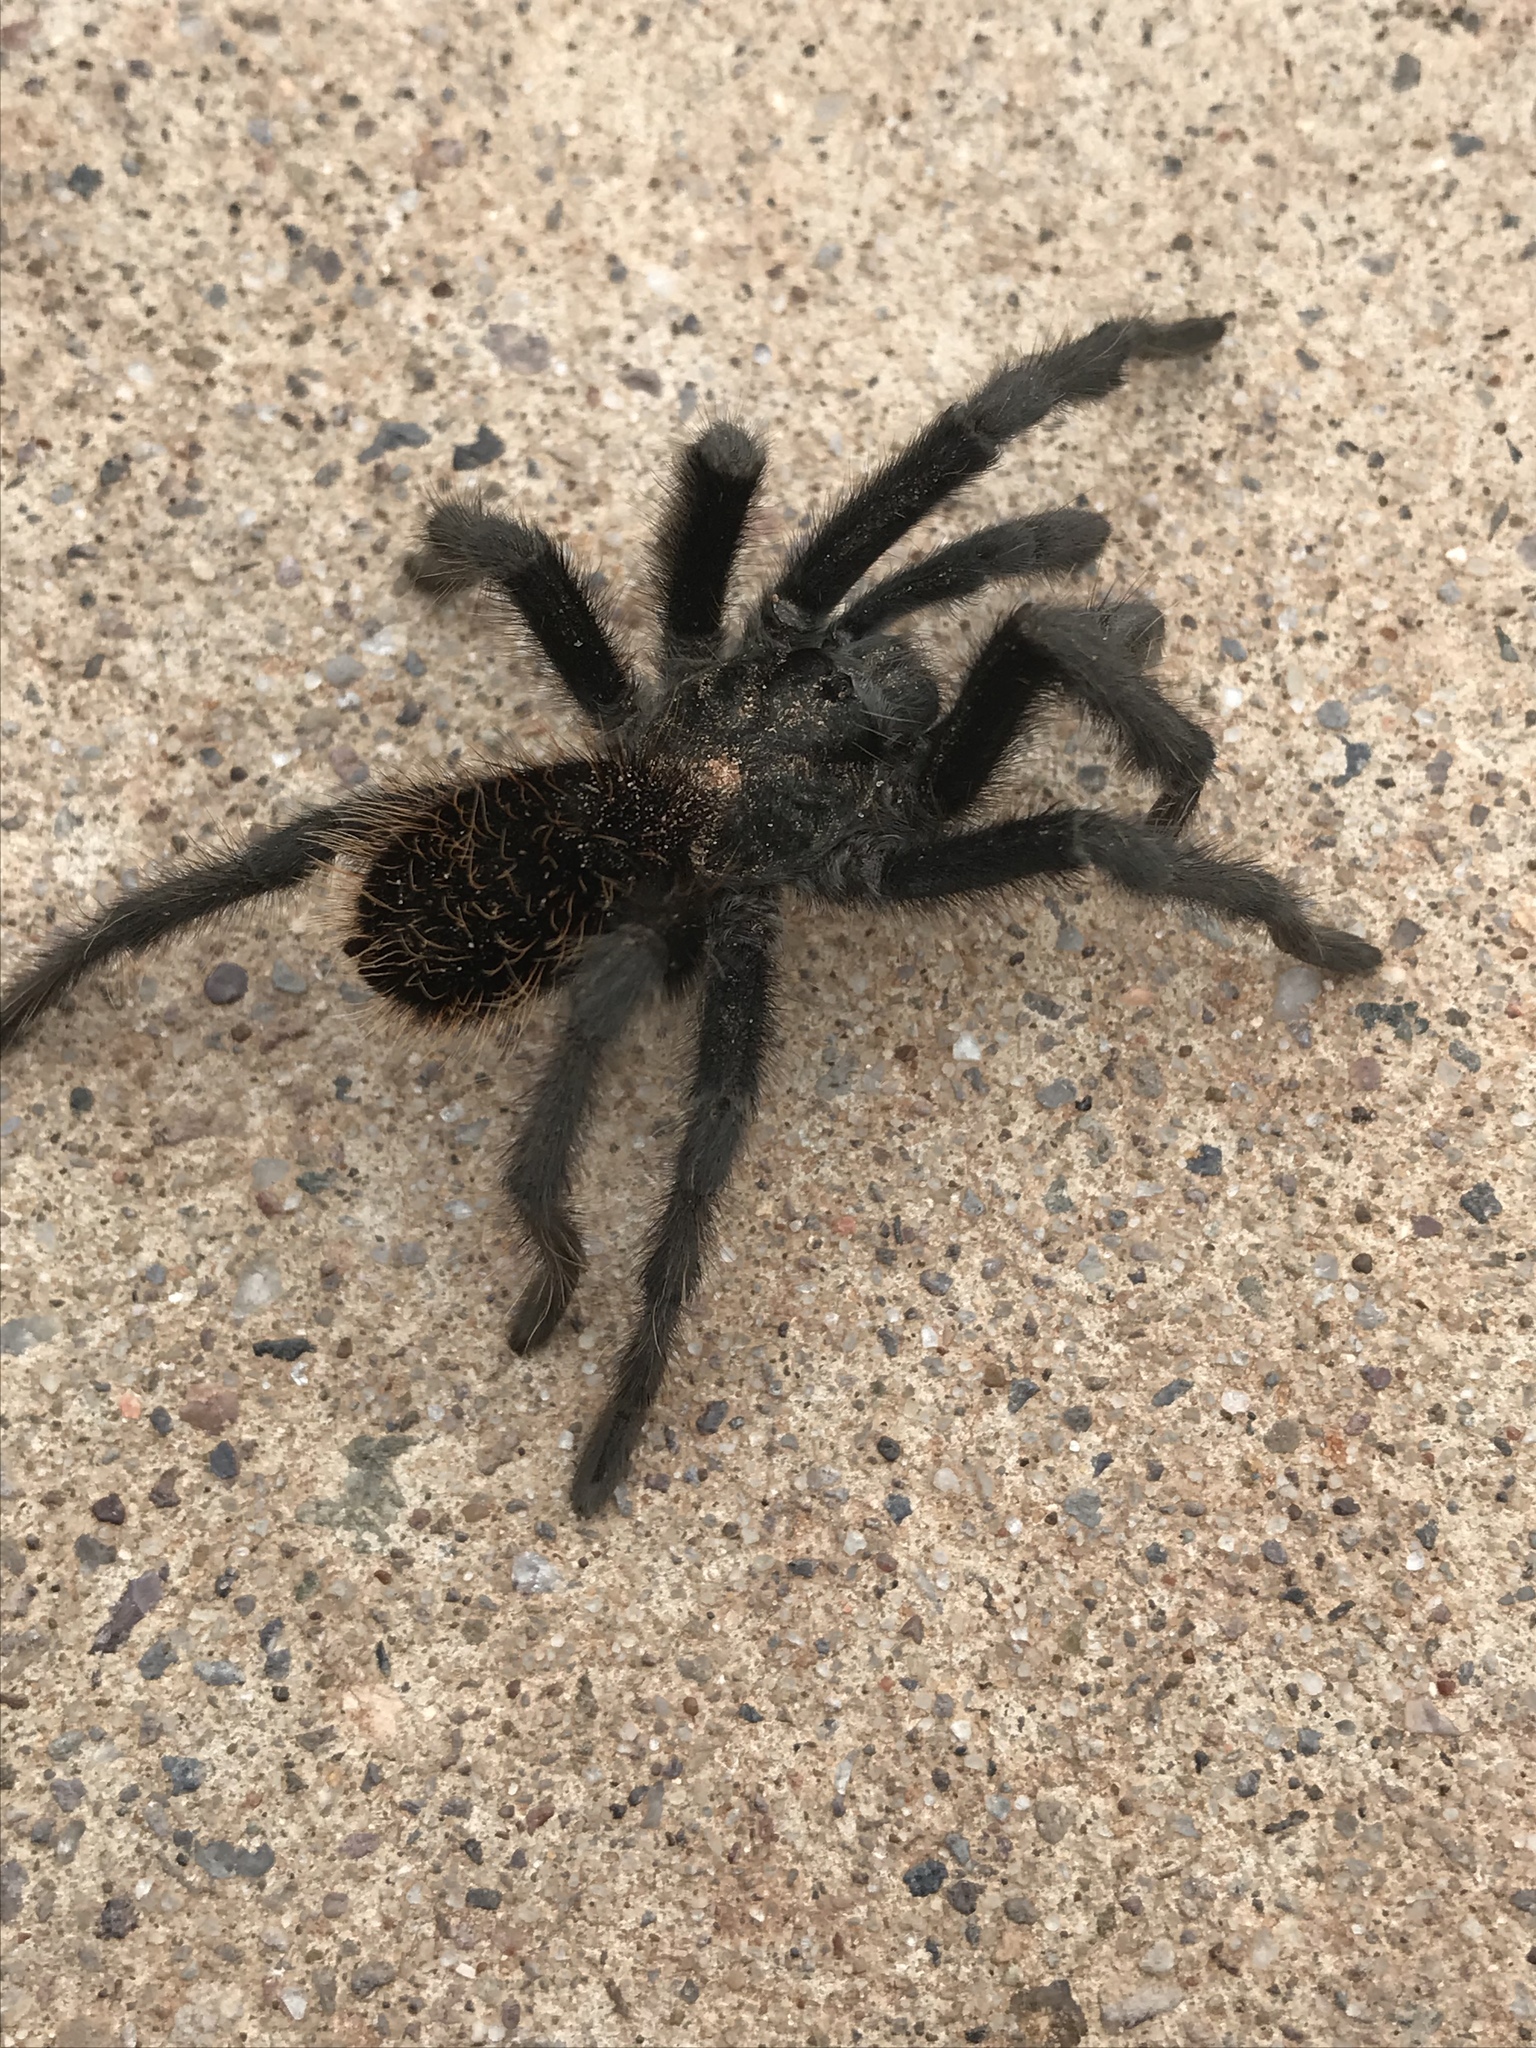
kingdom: Animalia
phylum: Arthropoda
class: Arachnida
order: Araneae
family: Theraphosidae
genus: Aphonopelma
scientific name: Aphonopelma marxi
